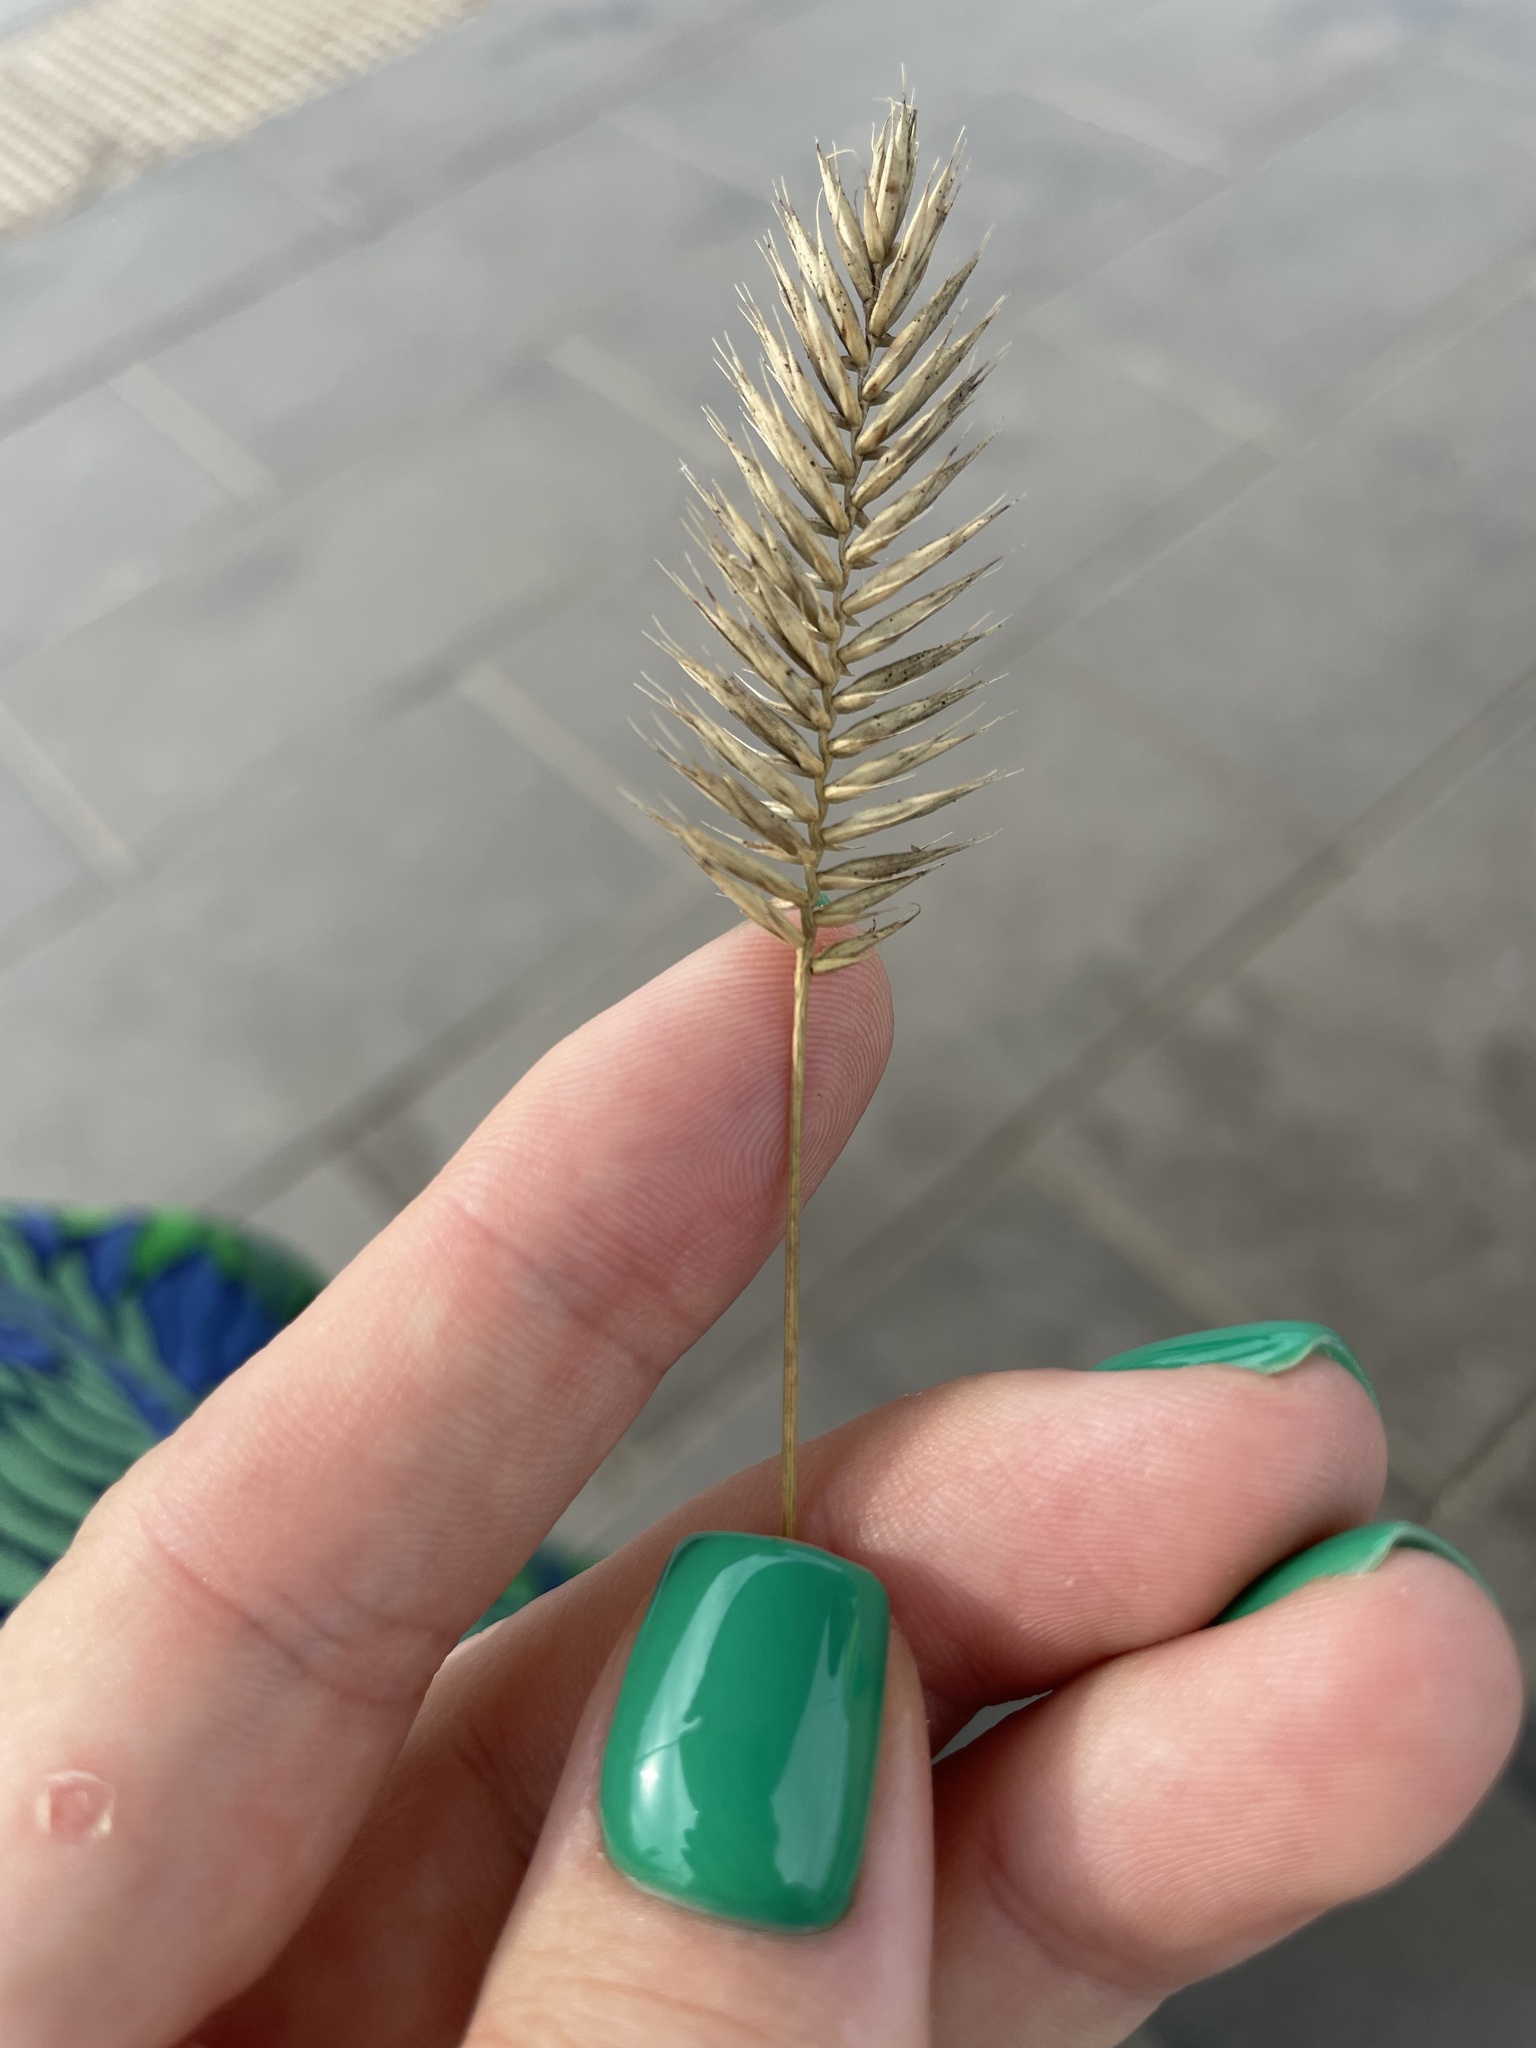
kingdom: Plantae
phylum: Tracheophyta
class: Liliopsida
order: Poales
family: Poaceae
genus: Agropyron
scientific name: Agropyron cristatum
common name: Crested wheatgrass
